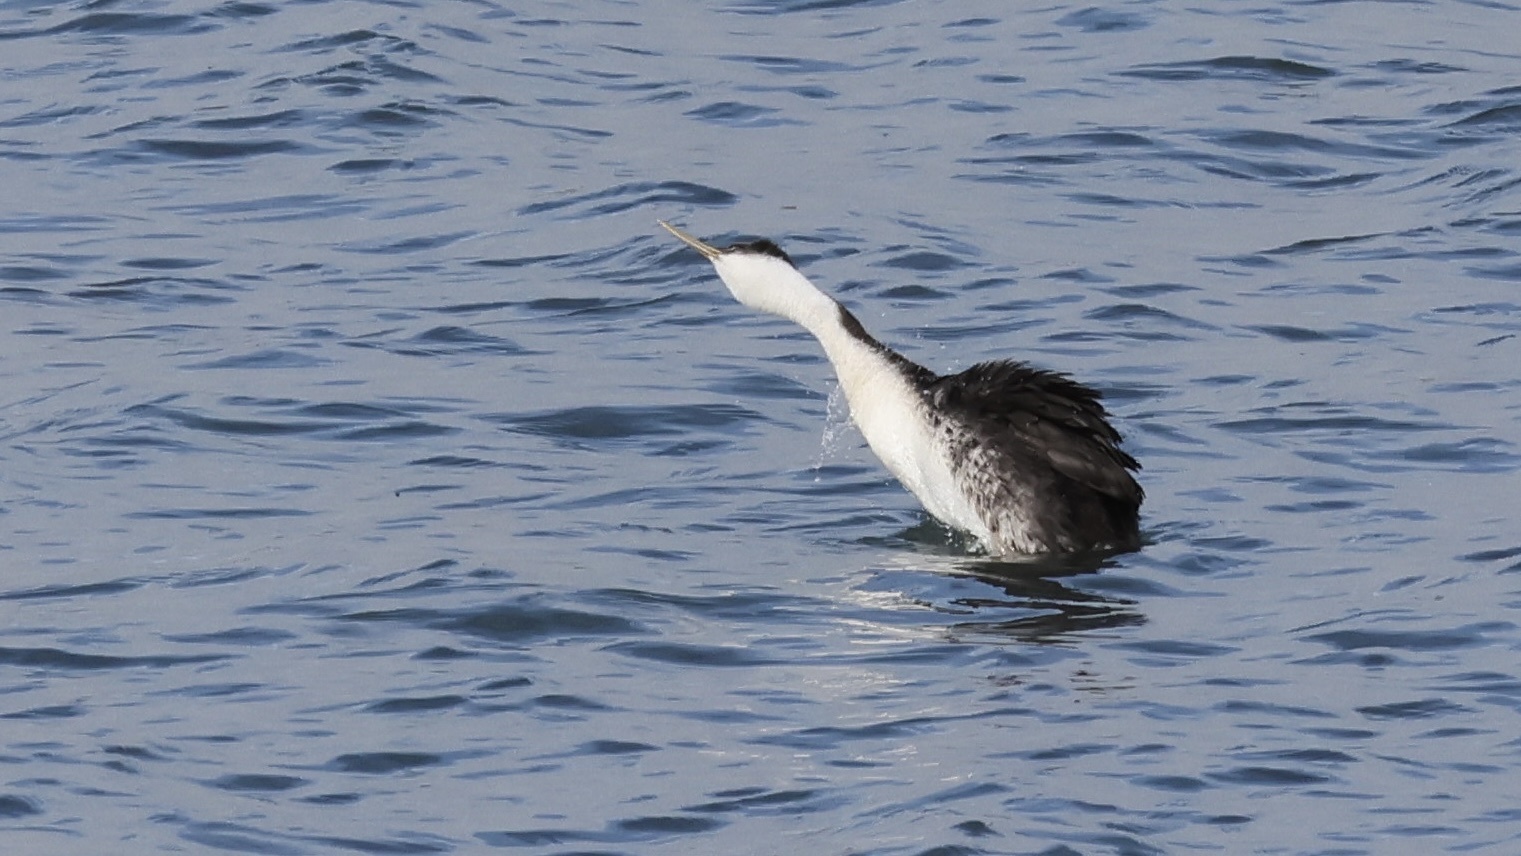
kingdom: Animalia
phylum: Chordata
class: Aves
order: Podicipediformes
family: Podicipedidae
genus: Aechmophorus
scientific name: Aechmophorus occidentalis
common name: Western grebe
